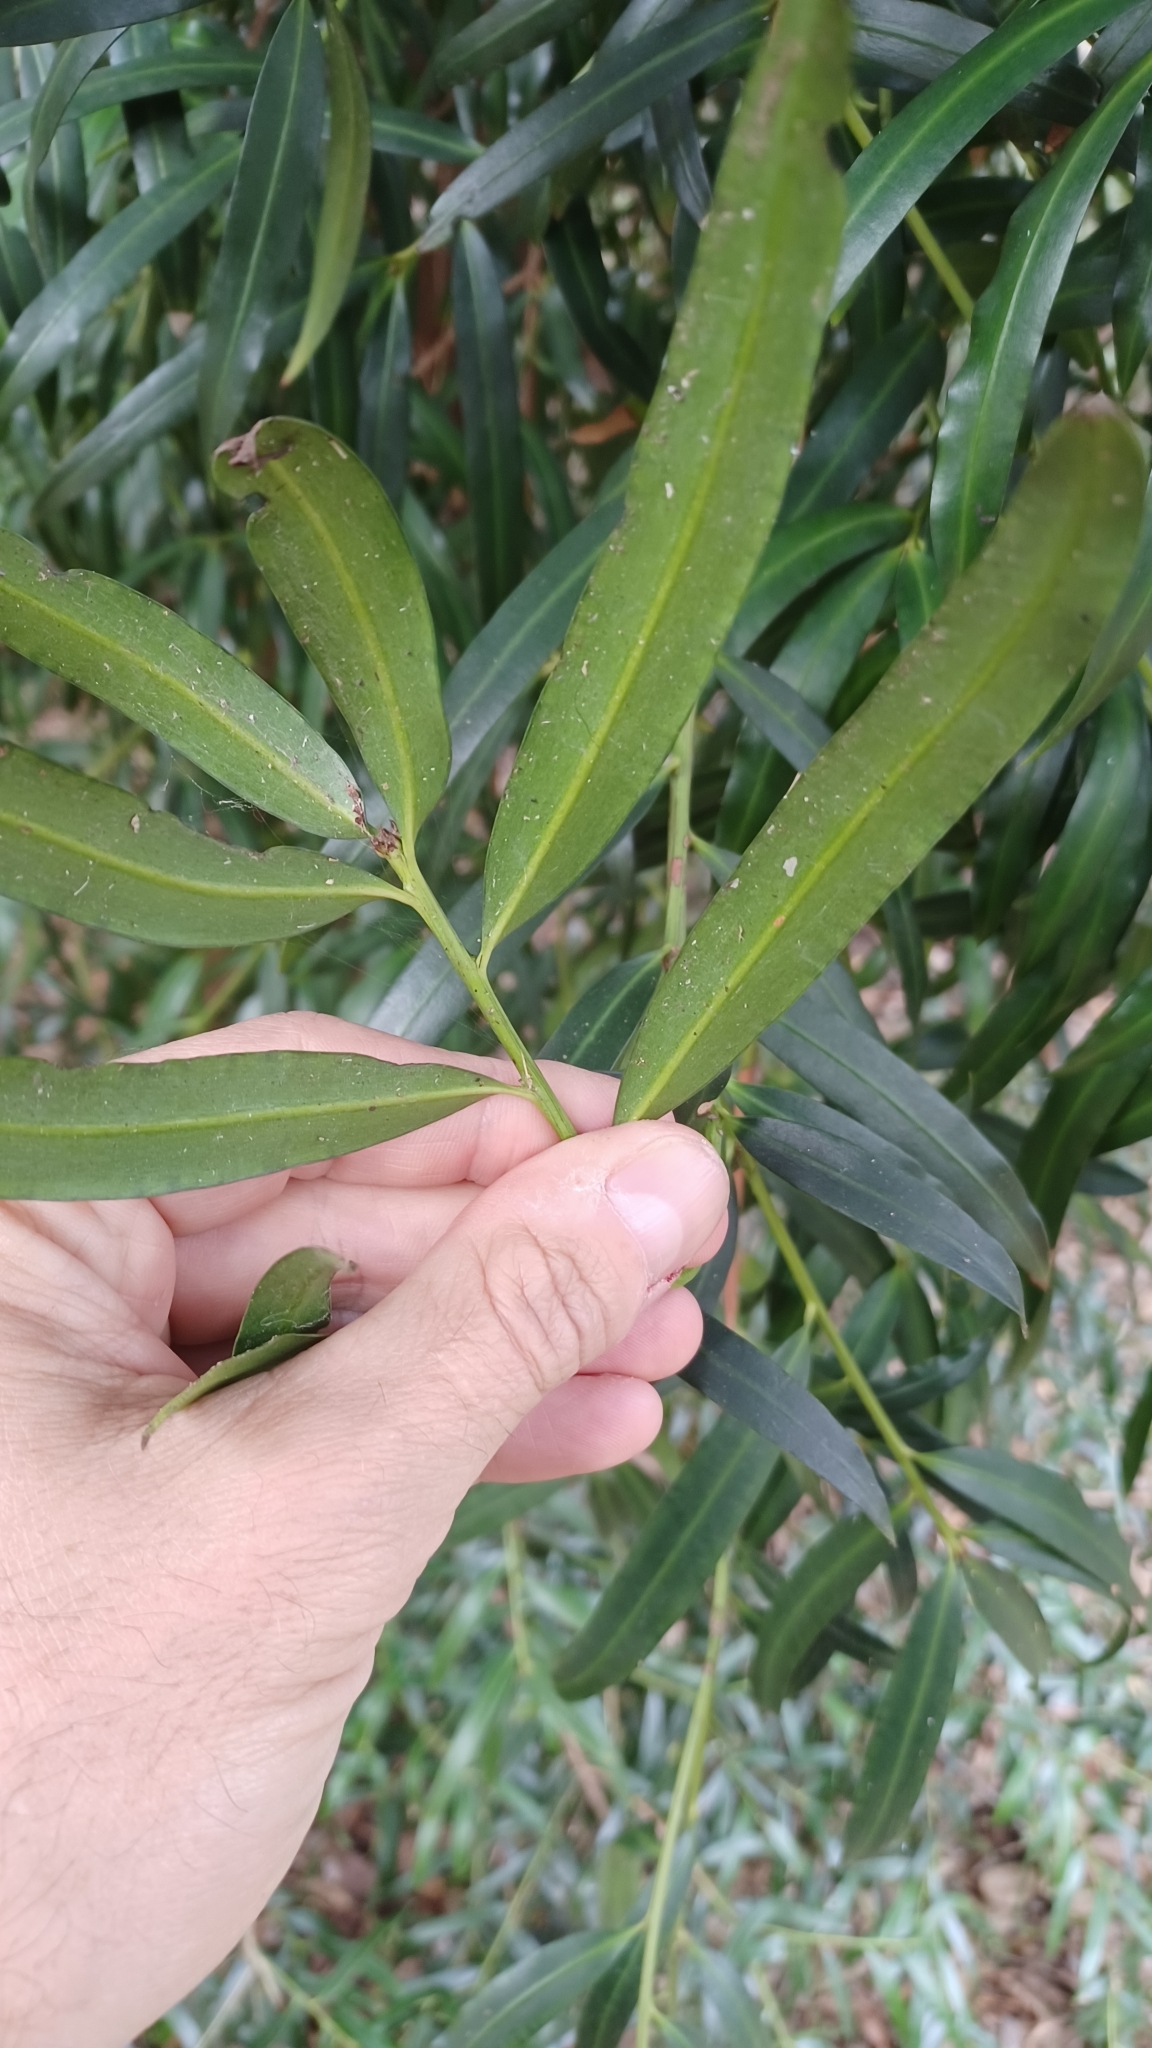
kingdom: Plantae
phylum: Tracheophyta
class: Pinopsida
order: Pinales
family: Podocarpaceae
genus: Podocarpus
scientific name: Podocarpus elatus
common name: Plum pine
